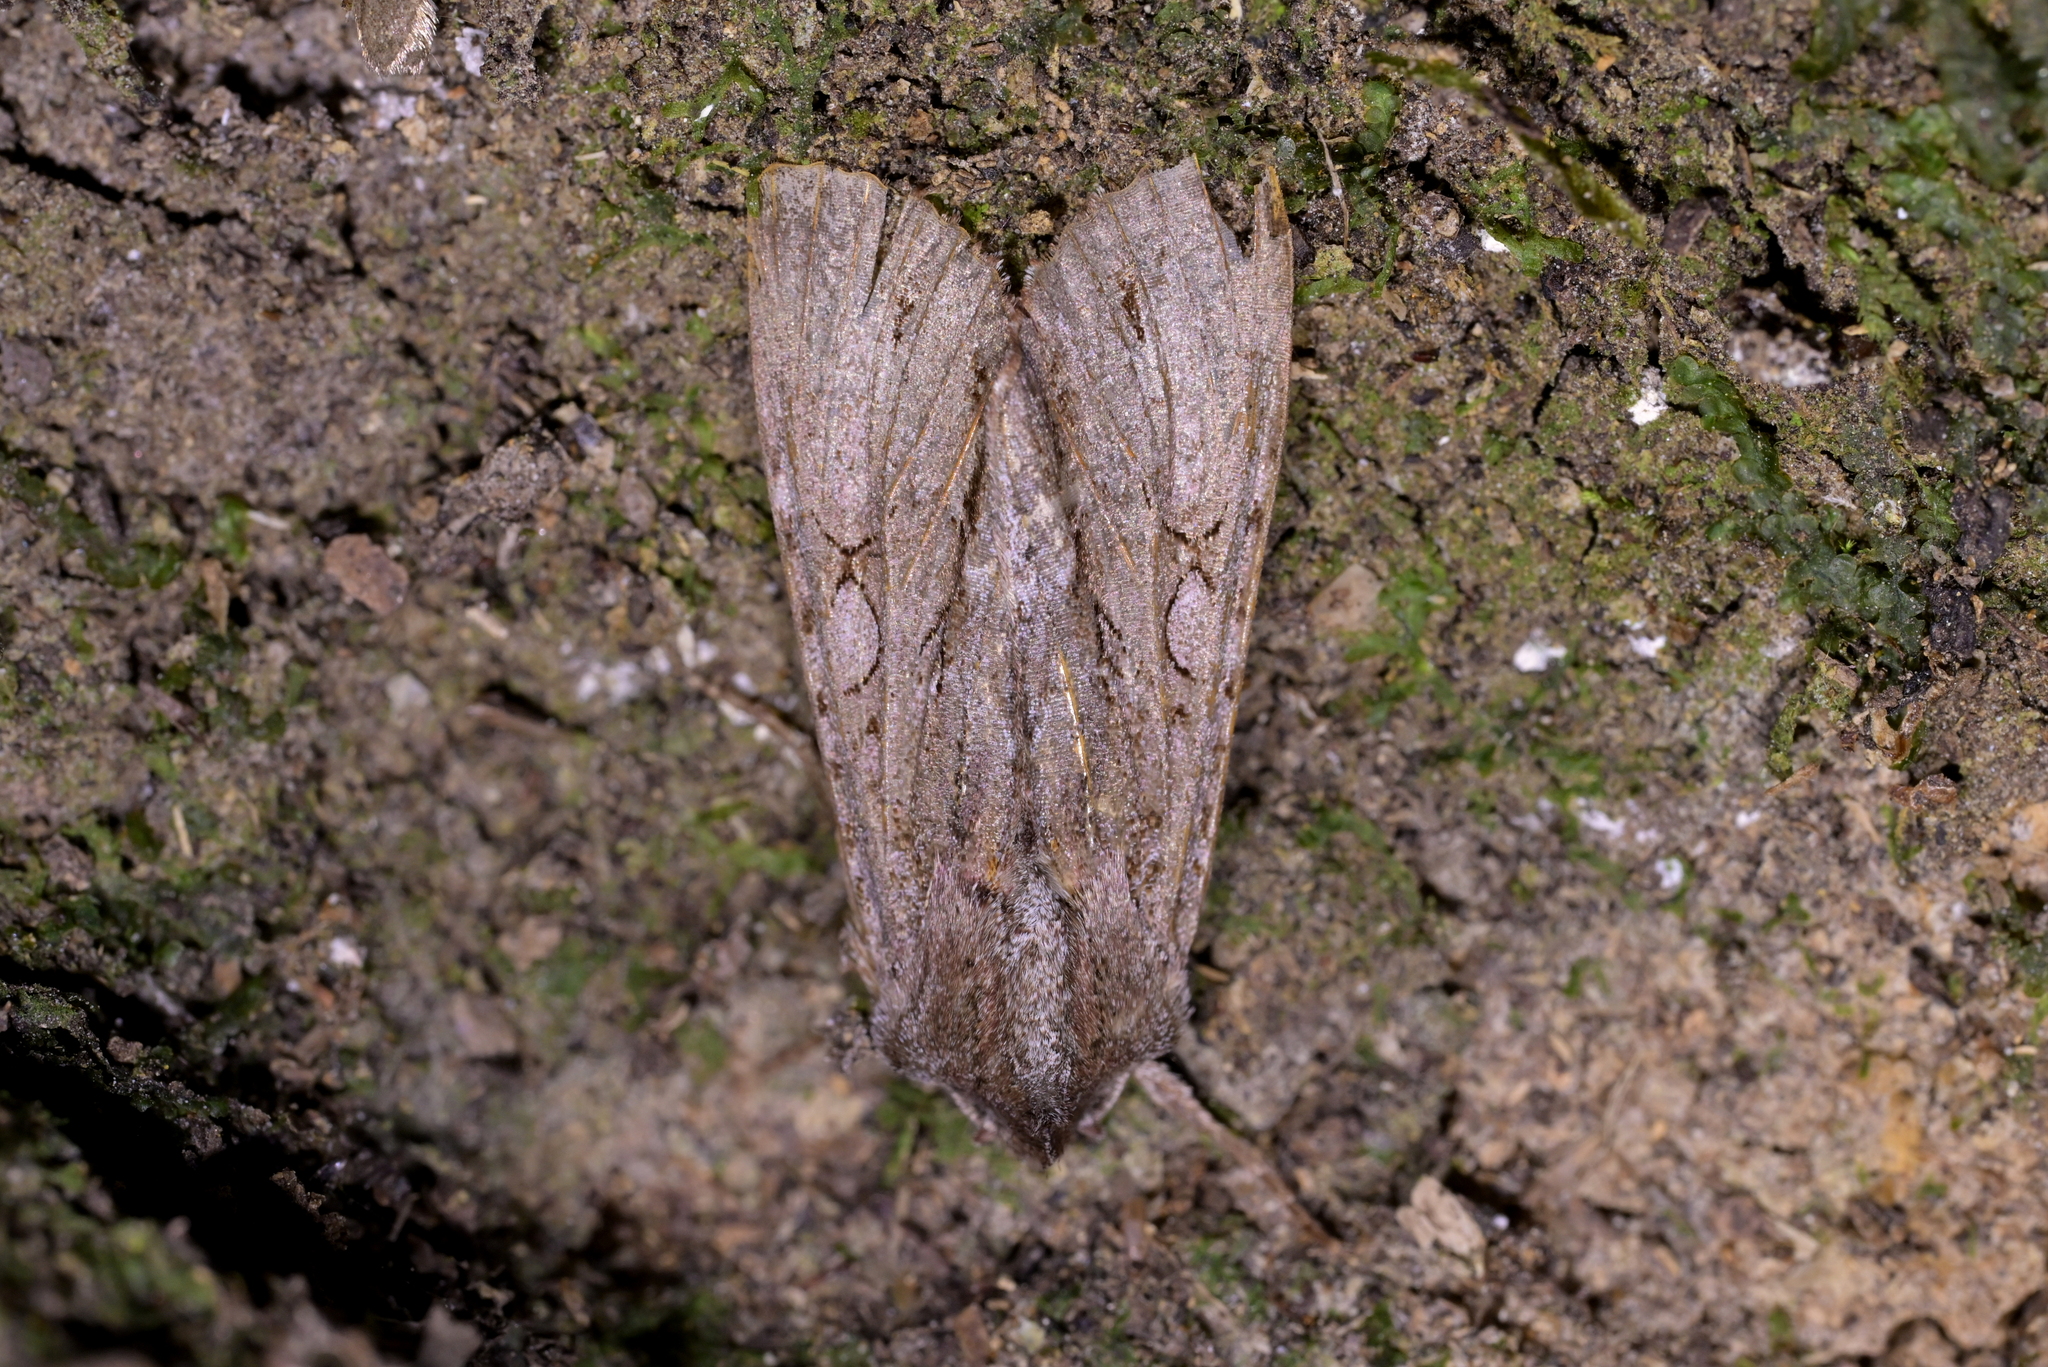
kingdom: Animalia
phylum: Arthropoda
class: Insecta
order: Lepidoptera
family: Noctuidae
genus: Ichneutica
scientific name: Ichneutica
